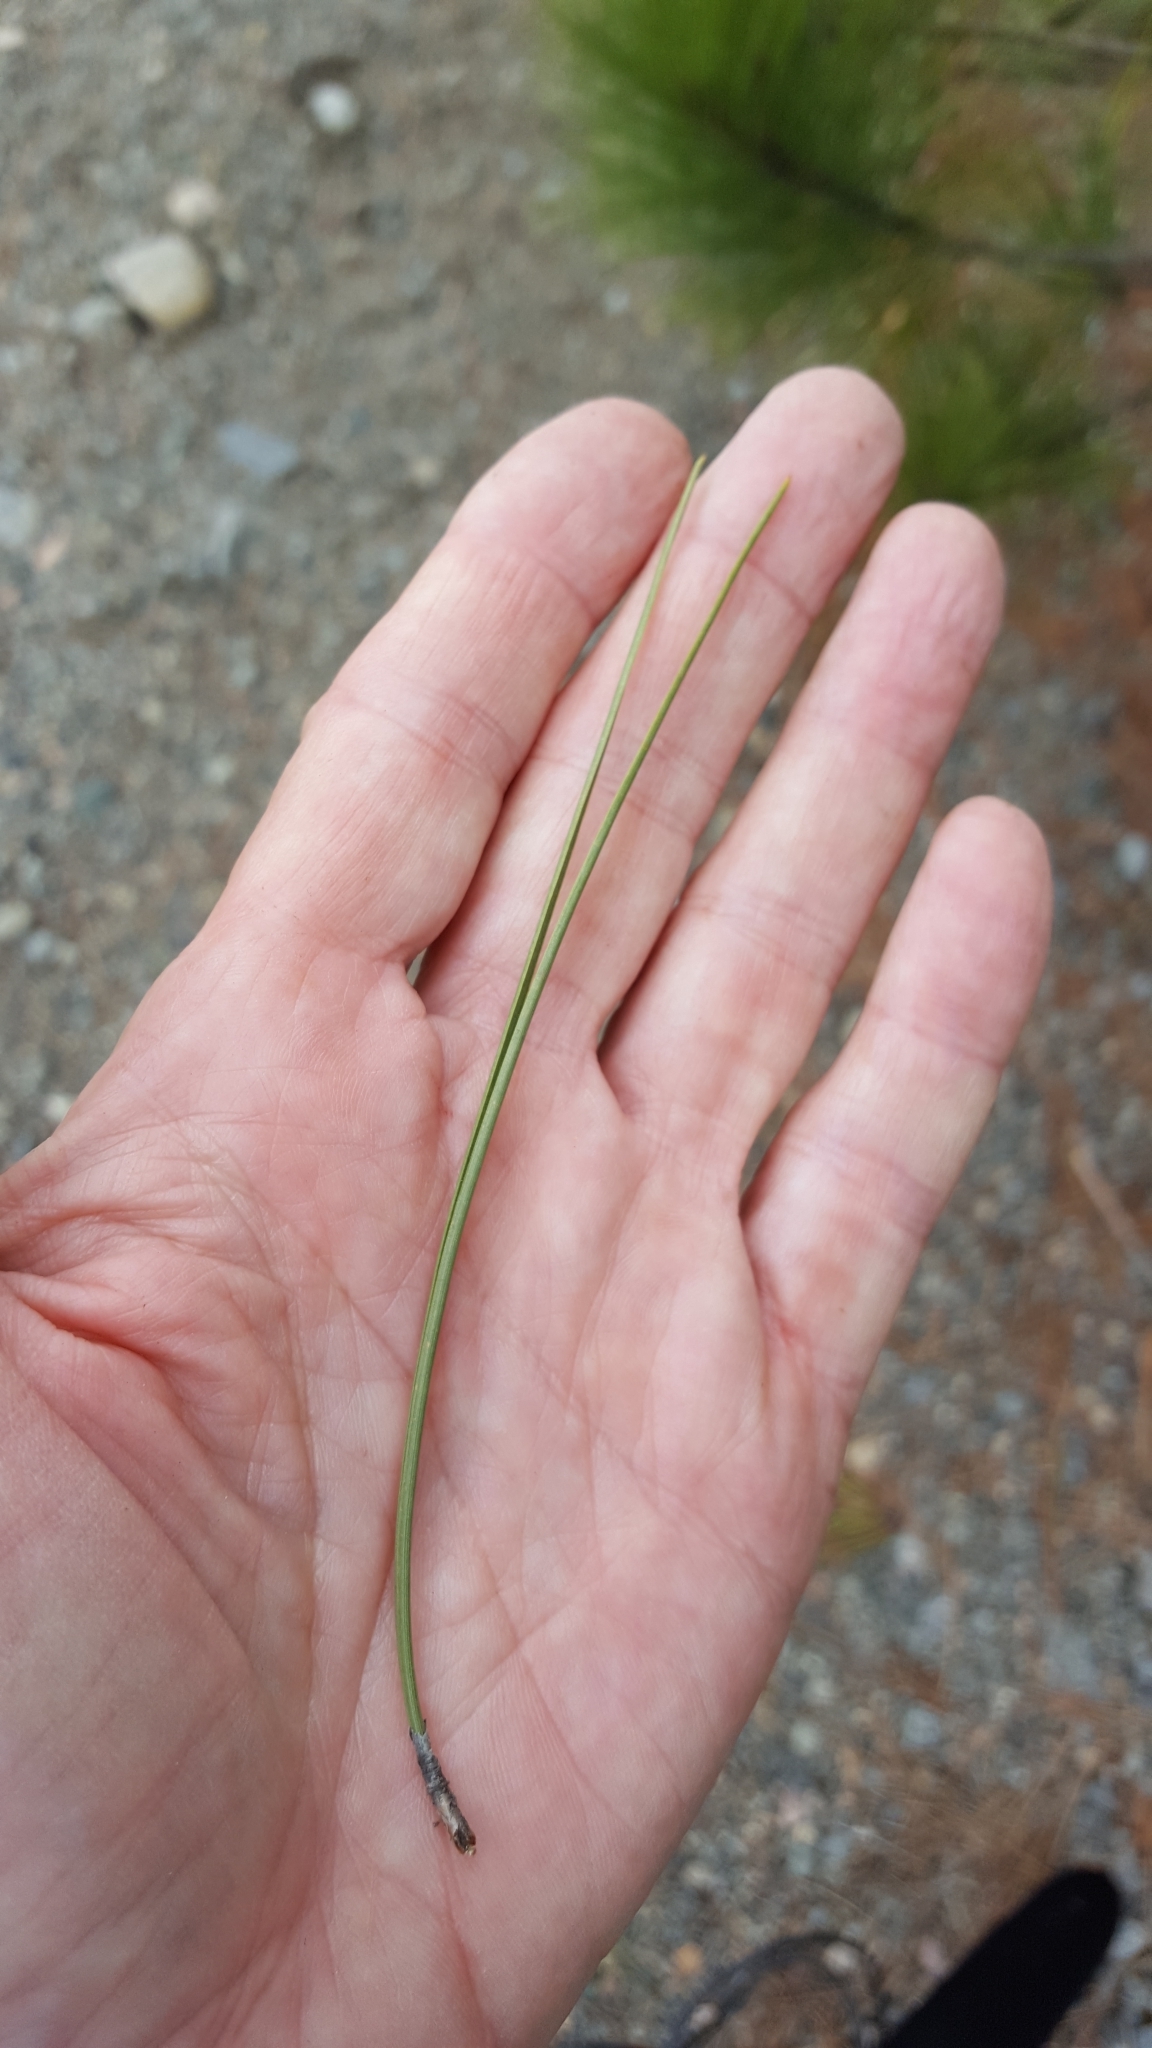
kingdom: Plantae
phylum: Tracheophyta
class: Pinopsida
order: Pinales
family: Pinaceae
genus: Pinus
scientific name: Pinus resinosa
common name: Norway pine
